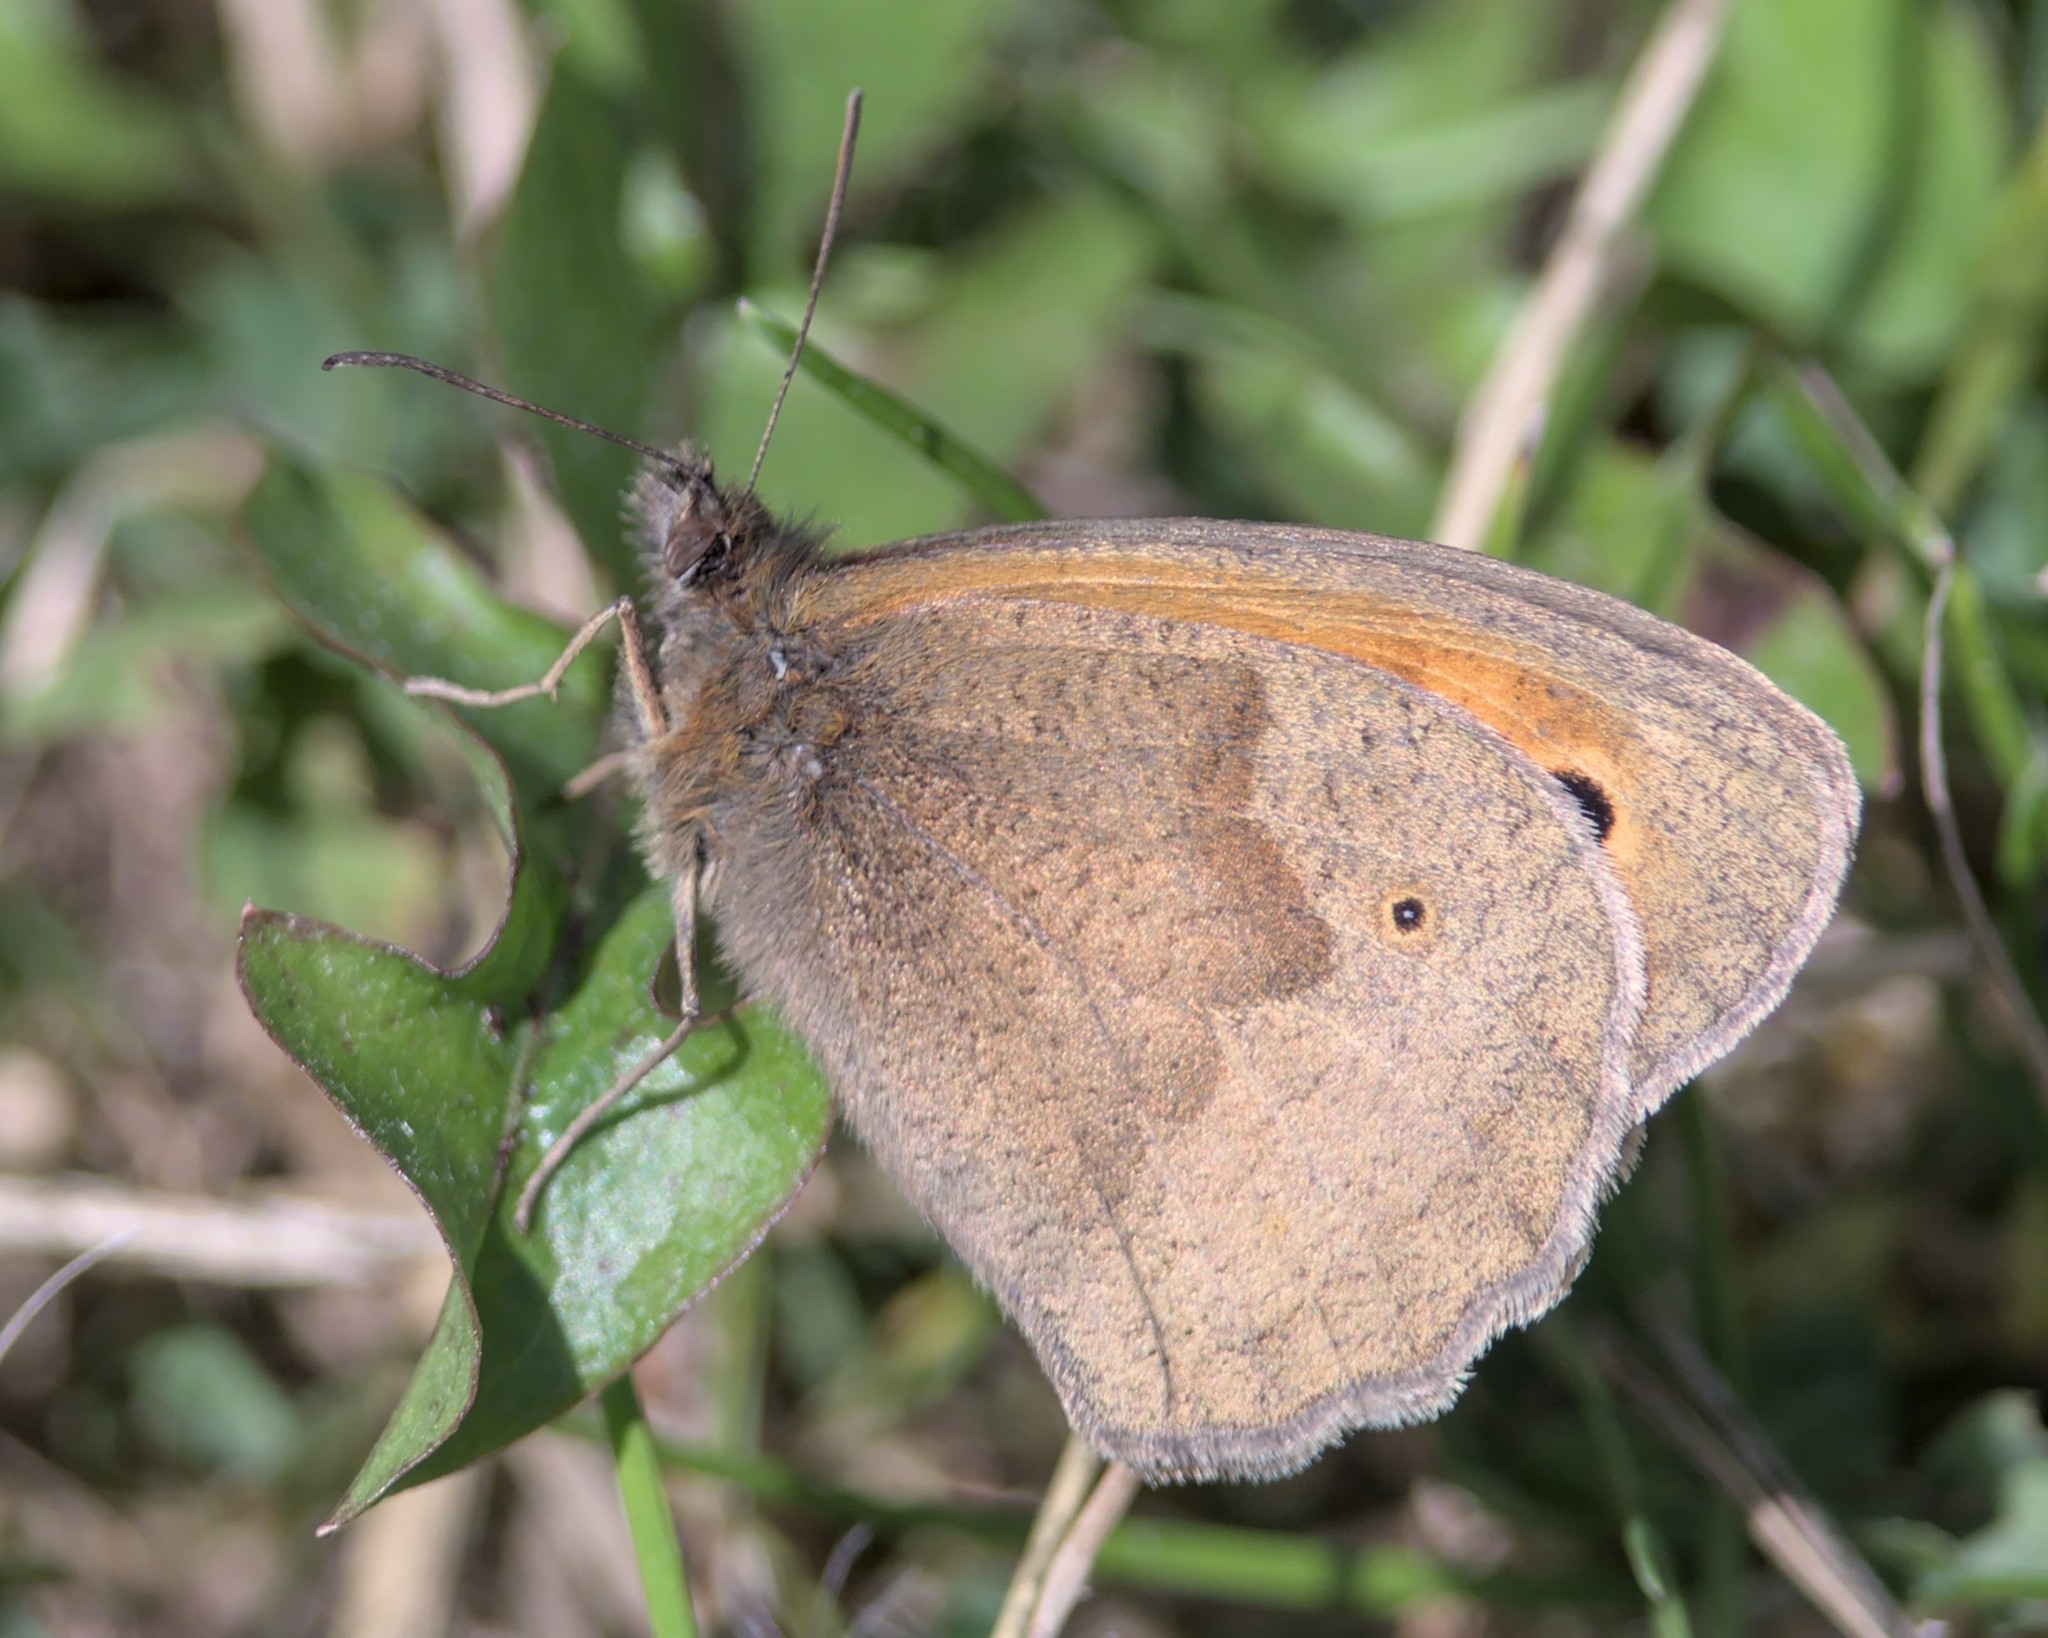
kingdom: Animalia
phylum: Arthropoda
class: Insecta
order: Lepidoptera
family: Nymphalidae
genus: Maniola
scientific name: Maniola jurtina
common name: Meadow brown
